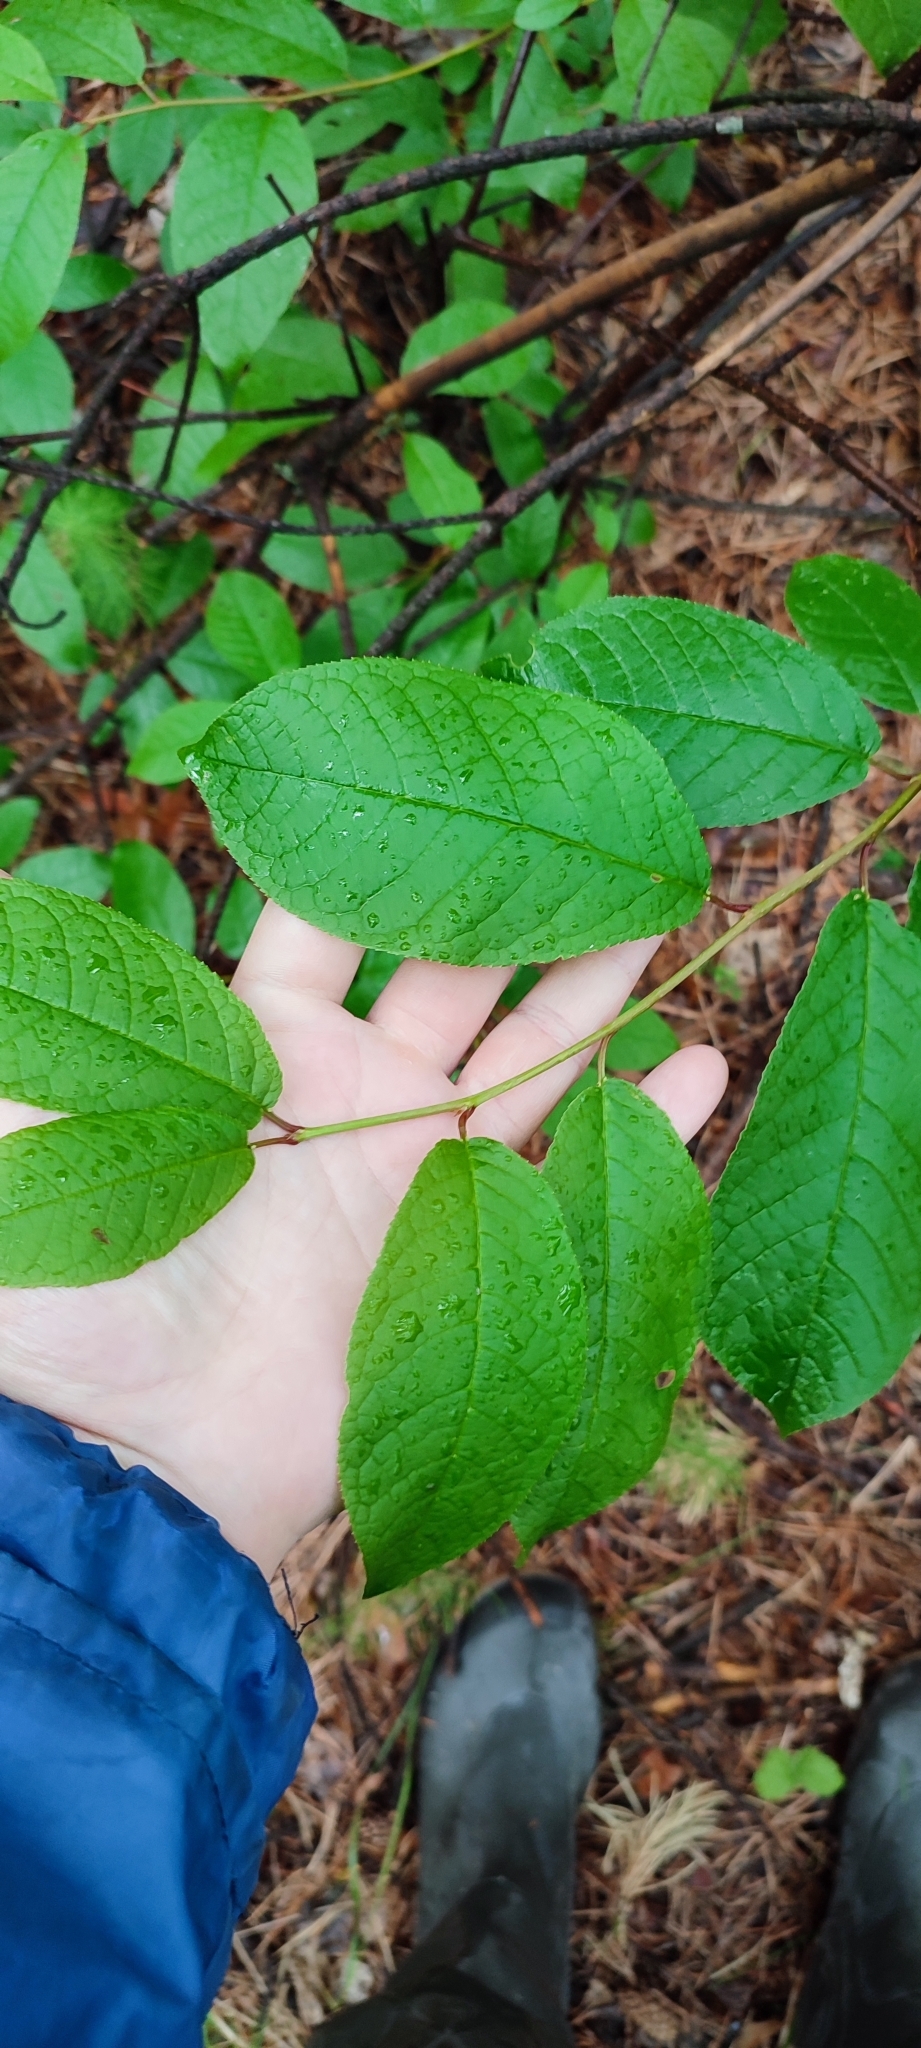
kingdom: Plantae
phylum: Tracheophyta
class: Magnoliopsida
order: Rosales
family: Rosaceae
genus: Prunus
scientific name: Prunus padus
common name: Bird cherry
